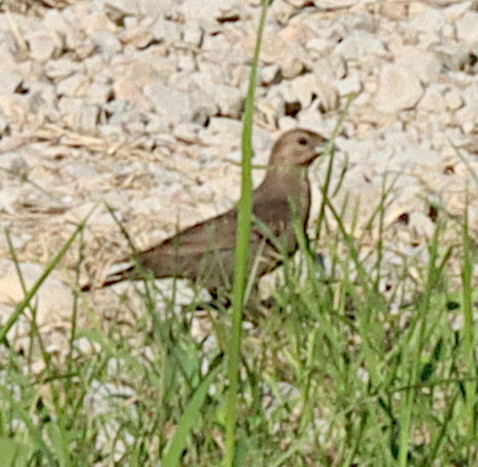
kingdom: Animalia
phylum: Chordata
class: Aves
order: Passeriformes
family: Icteridae
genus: Molothrus
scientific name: Molothrus ater
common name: Brown-headed cowbird
